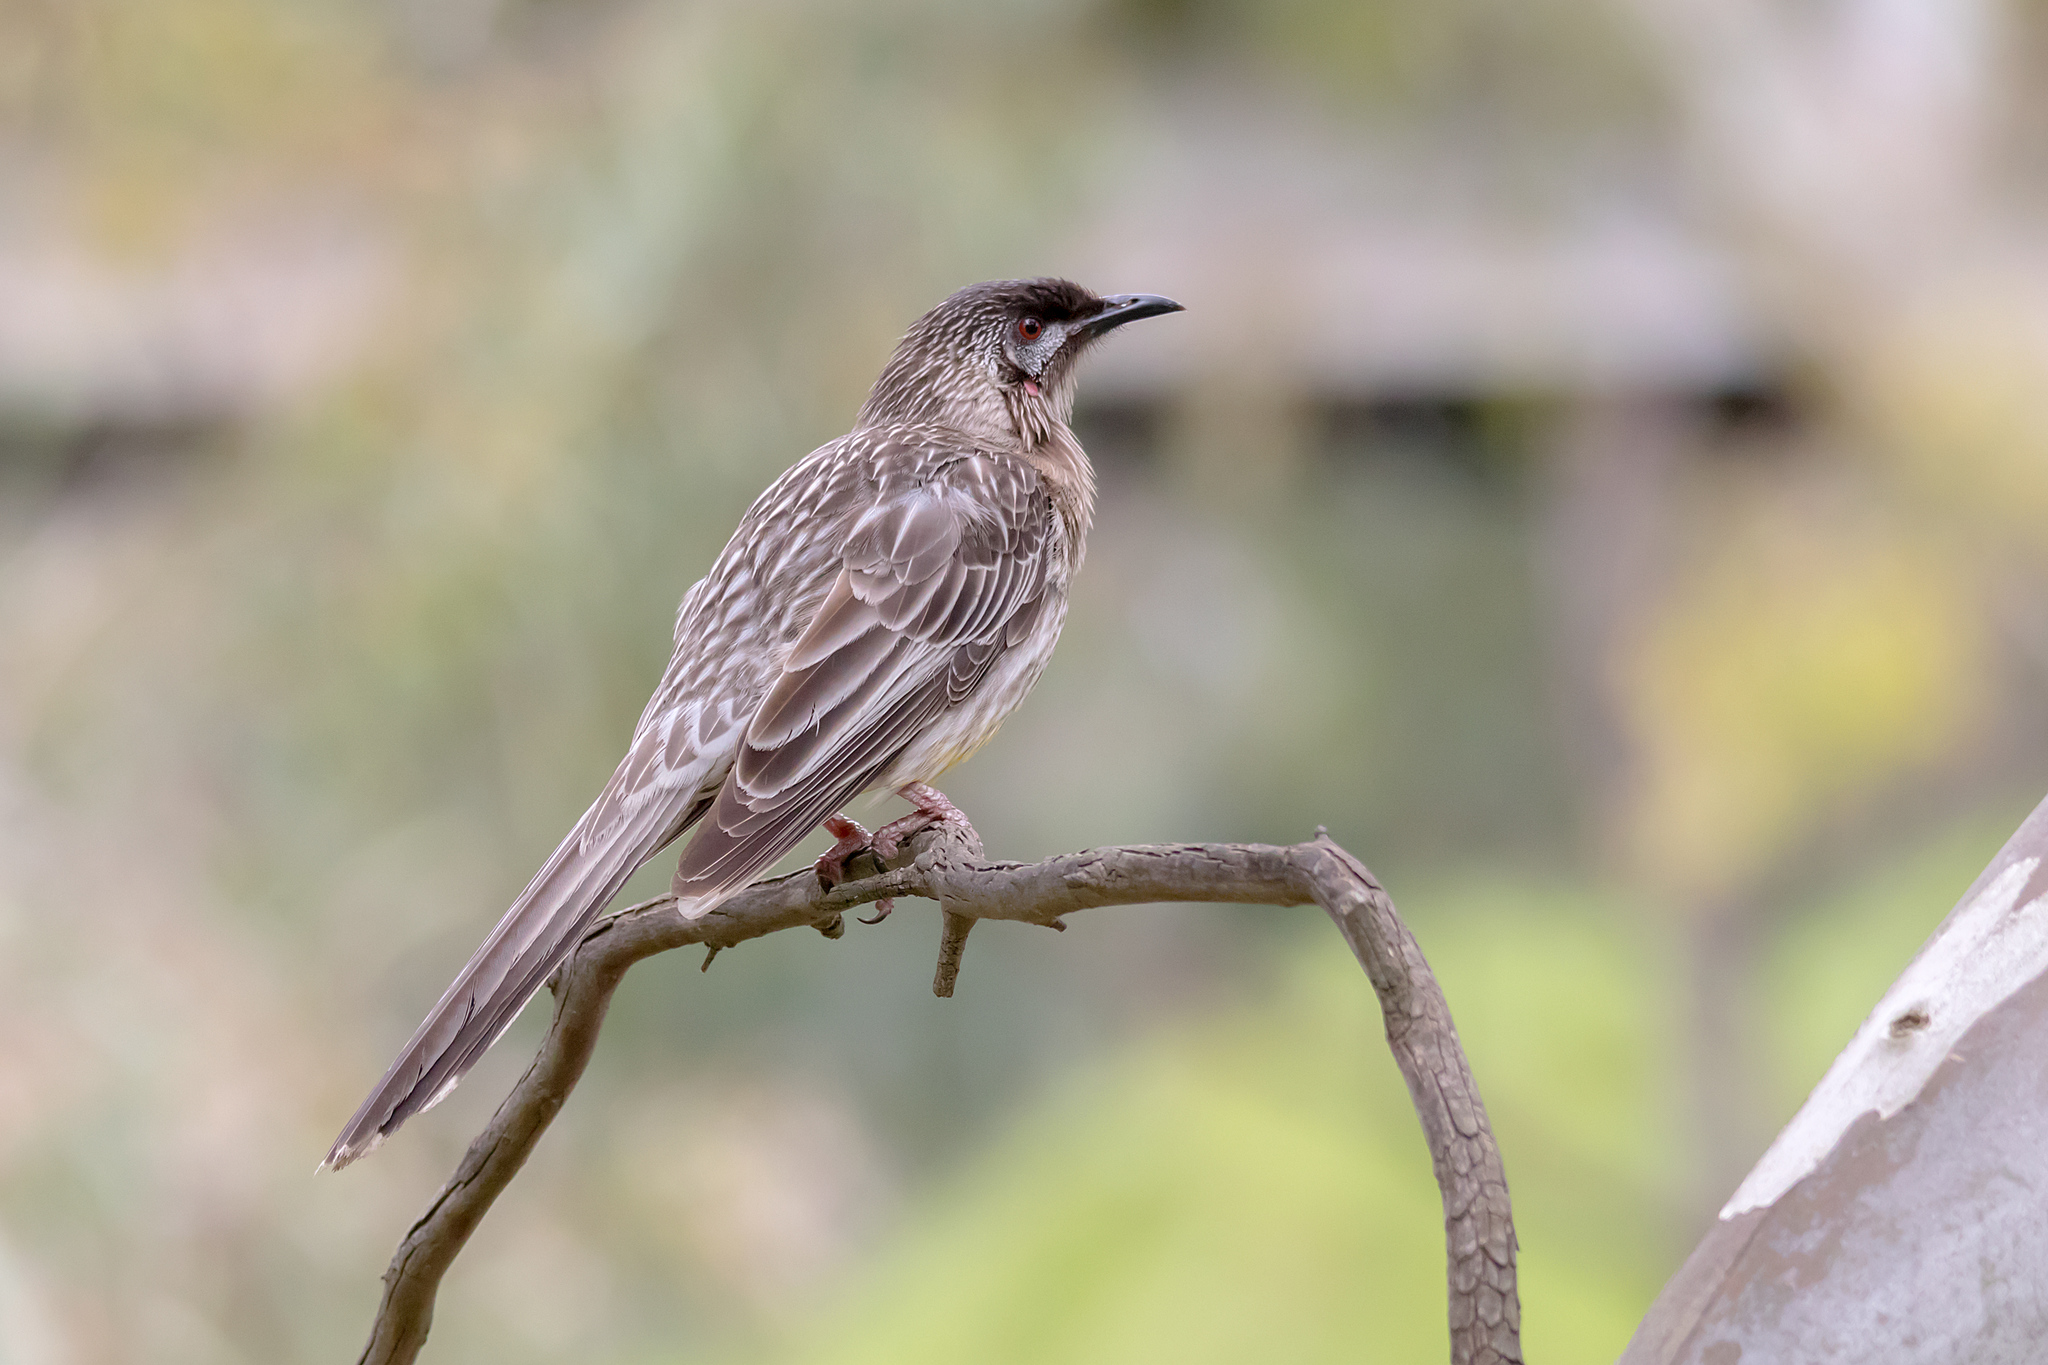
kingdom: Animalia
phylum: Chordata
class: Aves
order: Passeriformes
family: Meliphagidae
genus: Anthochaera
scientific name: Anthochaera carunculata
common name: Red wattlebird
